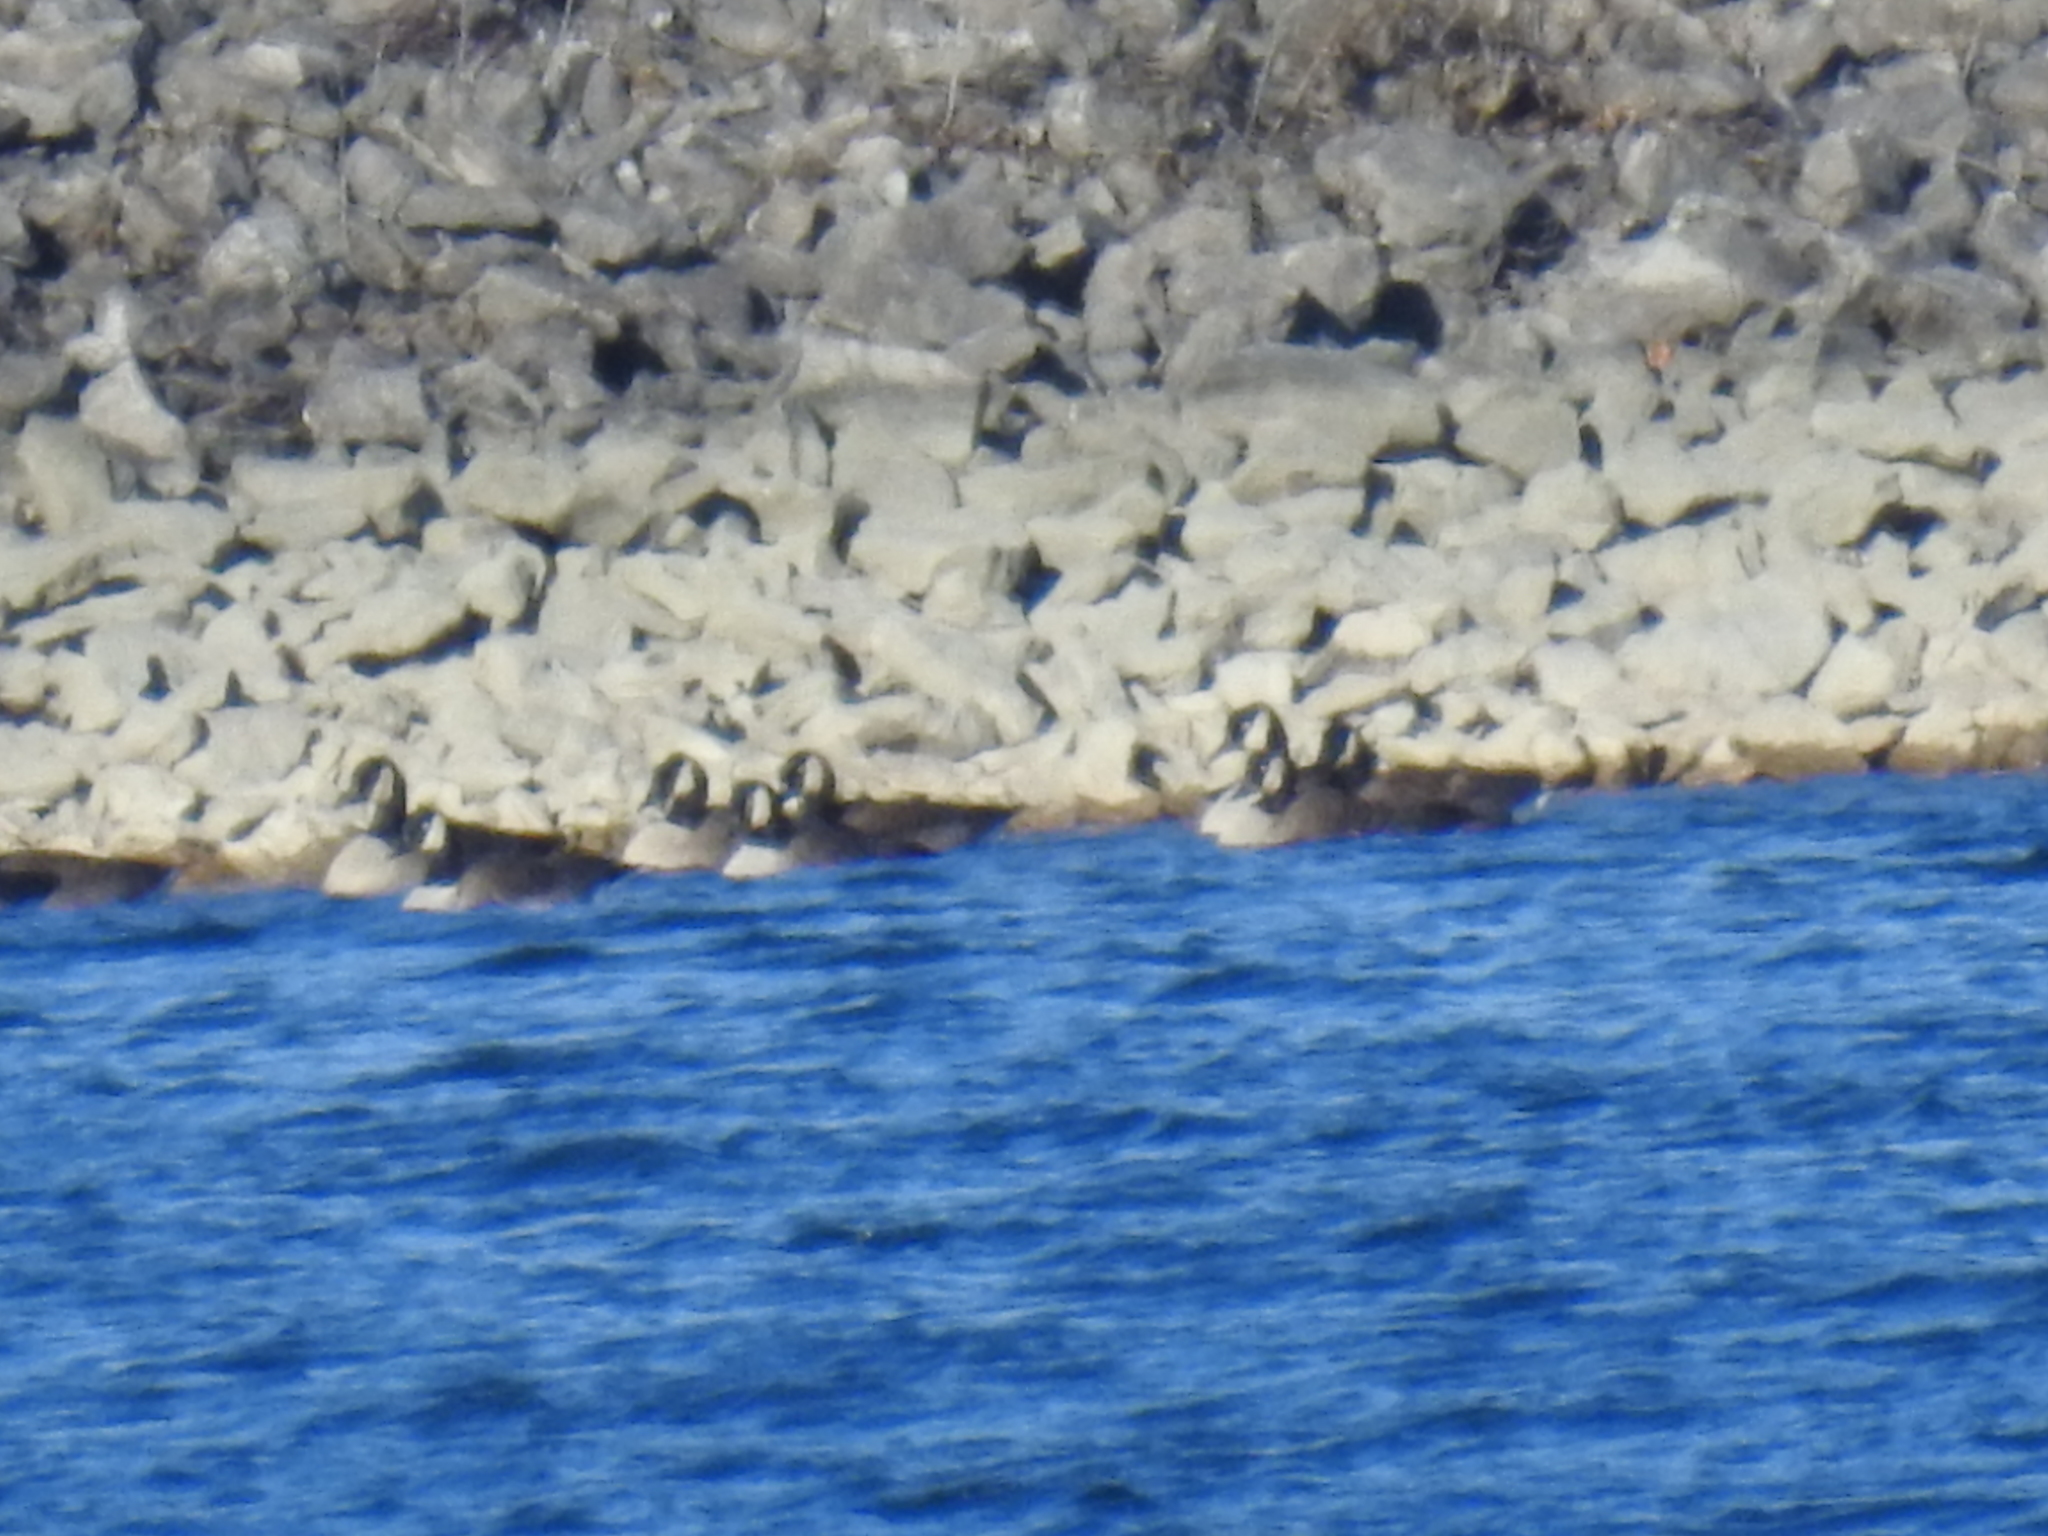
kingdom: Animalia
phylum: Chordata
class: Aves
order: Anseriformes
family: Anatidae
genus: Branta
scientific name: Branta canadensis
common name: Canada goose
